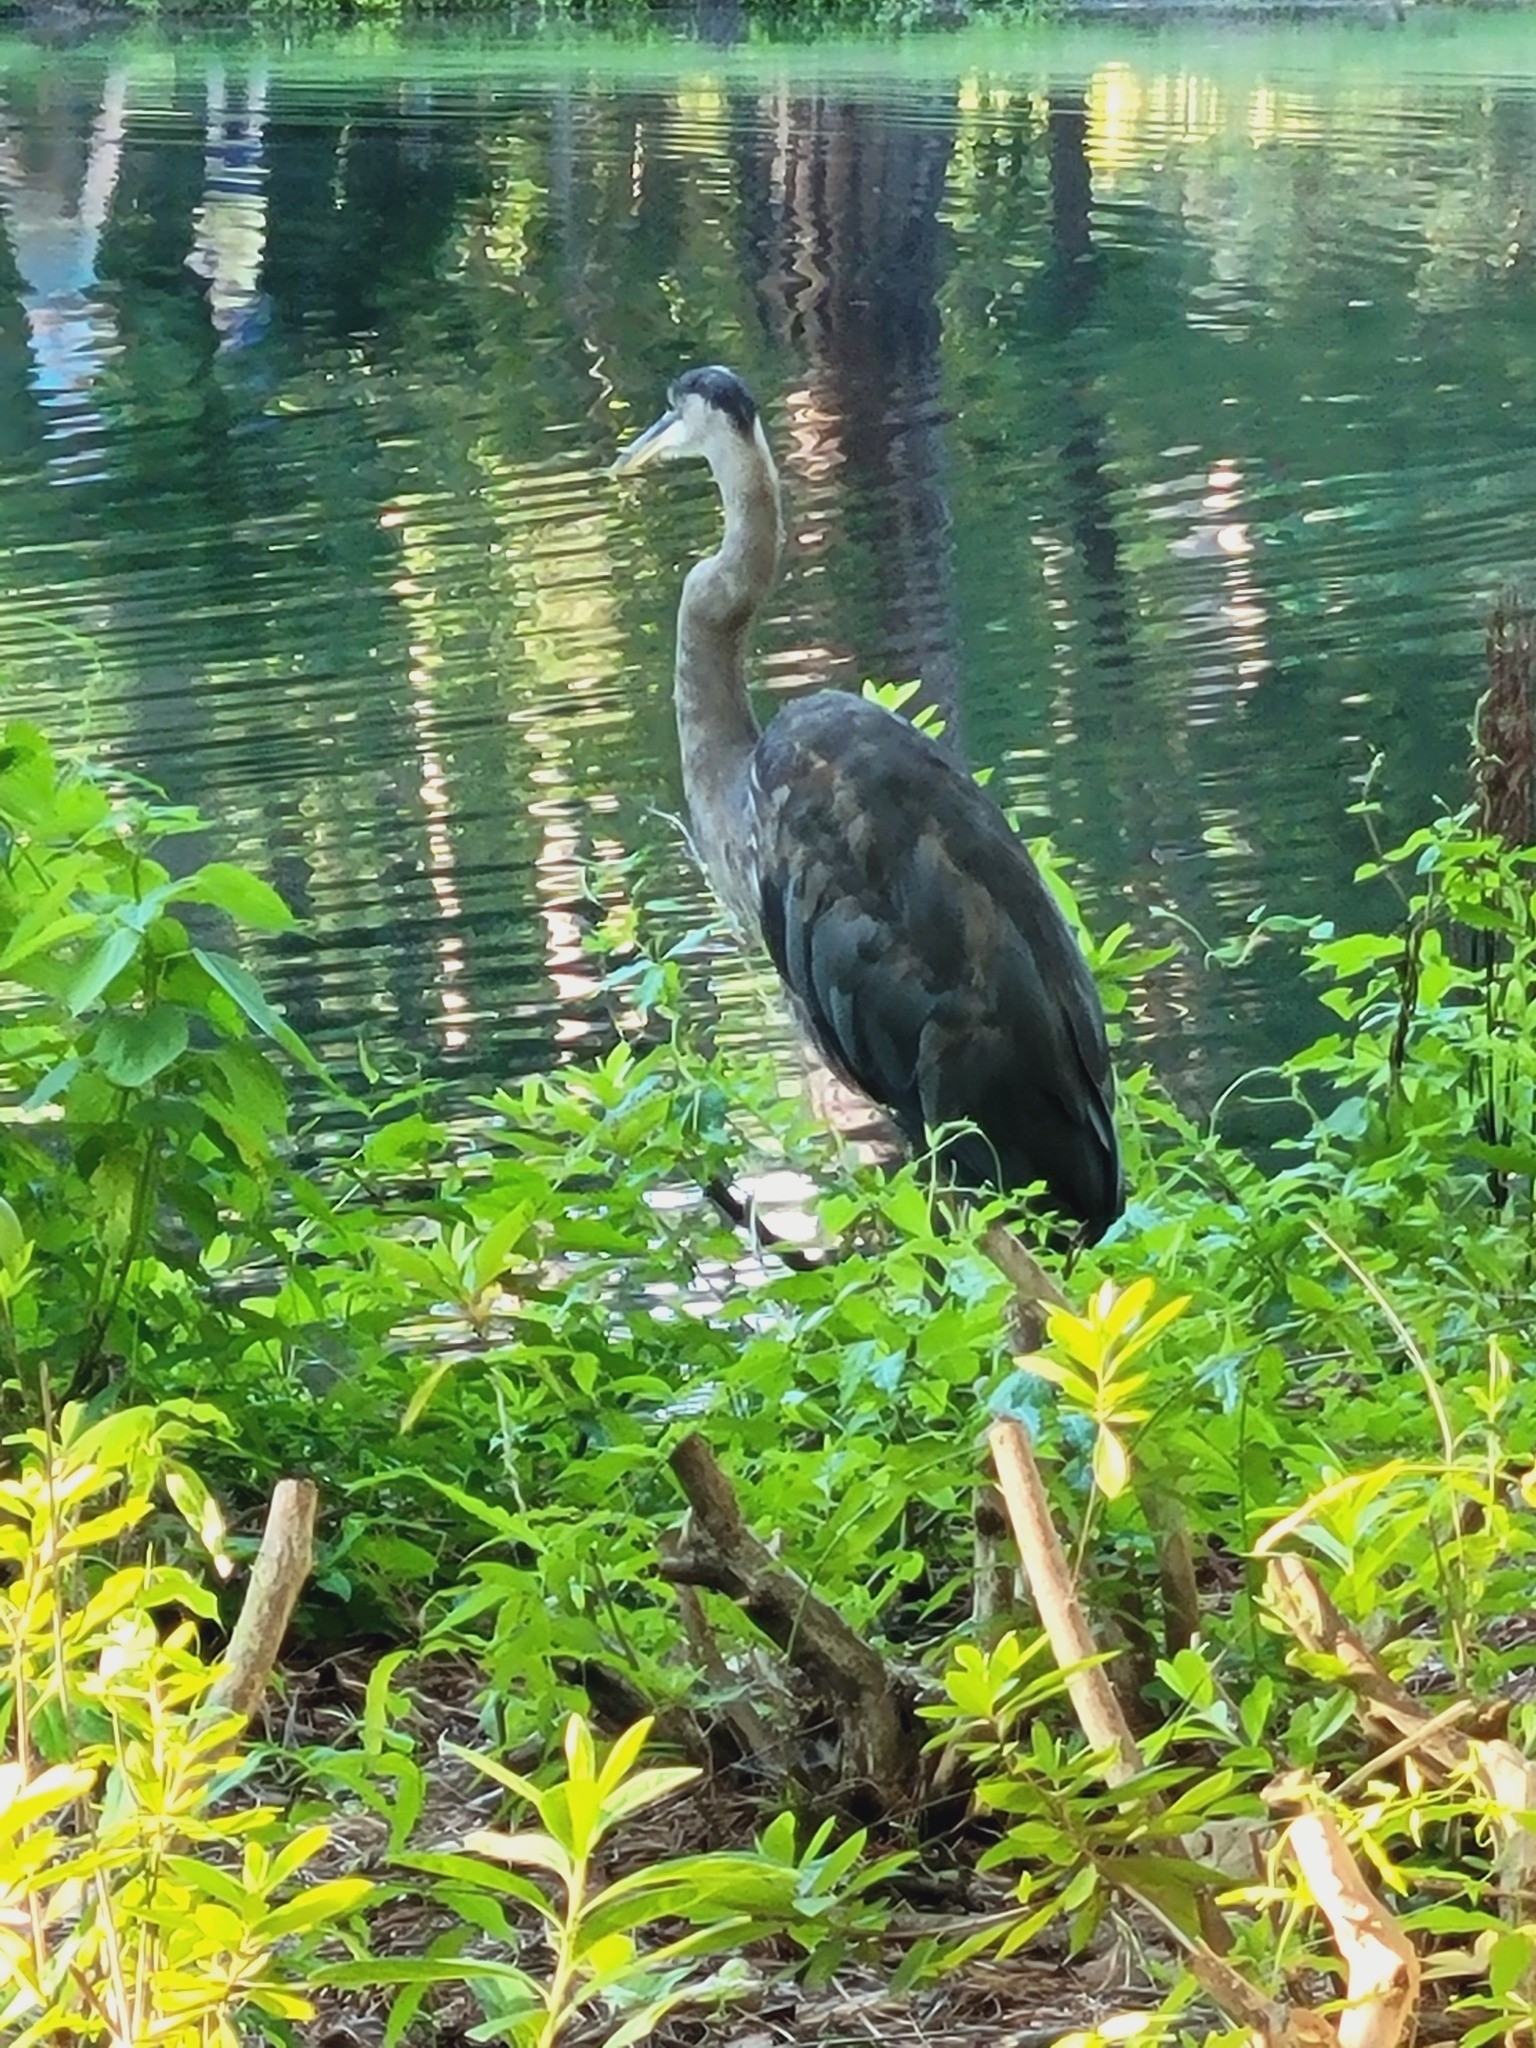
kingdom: Animalia
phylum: Chordata
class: Aves
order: Pelecaniformes
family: Ardeidae
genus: Ardea
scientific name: Ardea herodias
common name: Great blue heron
